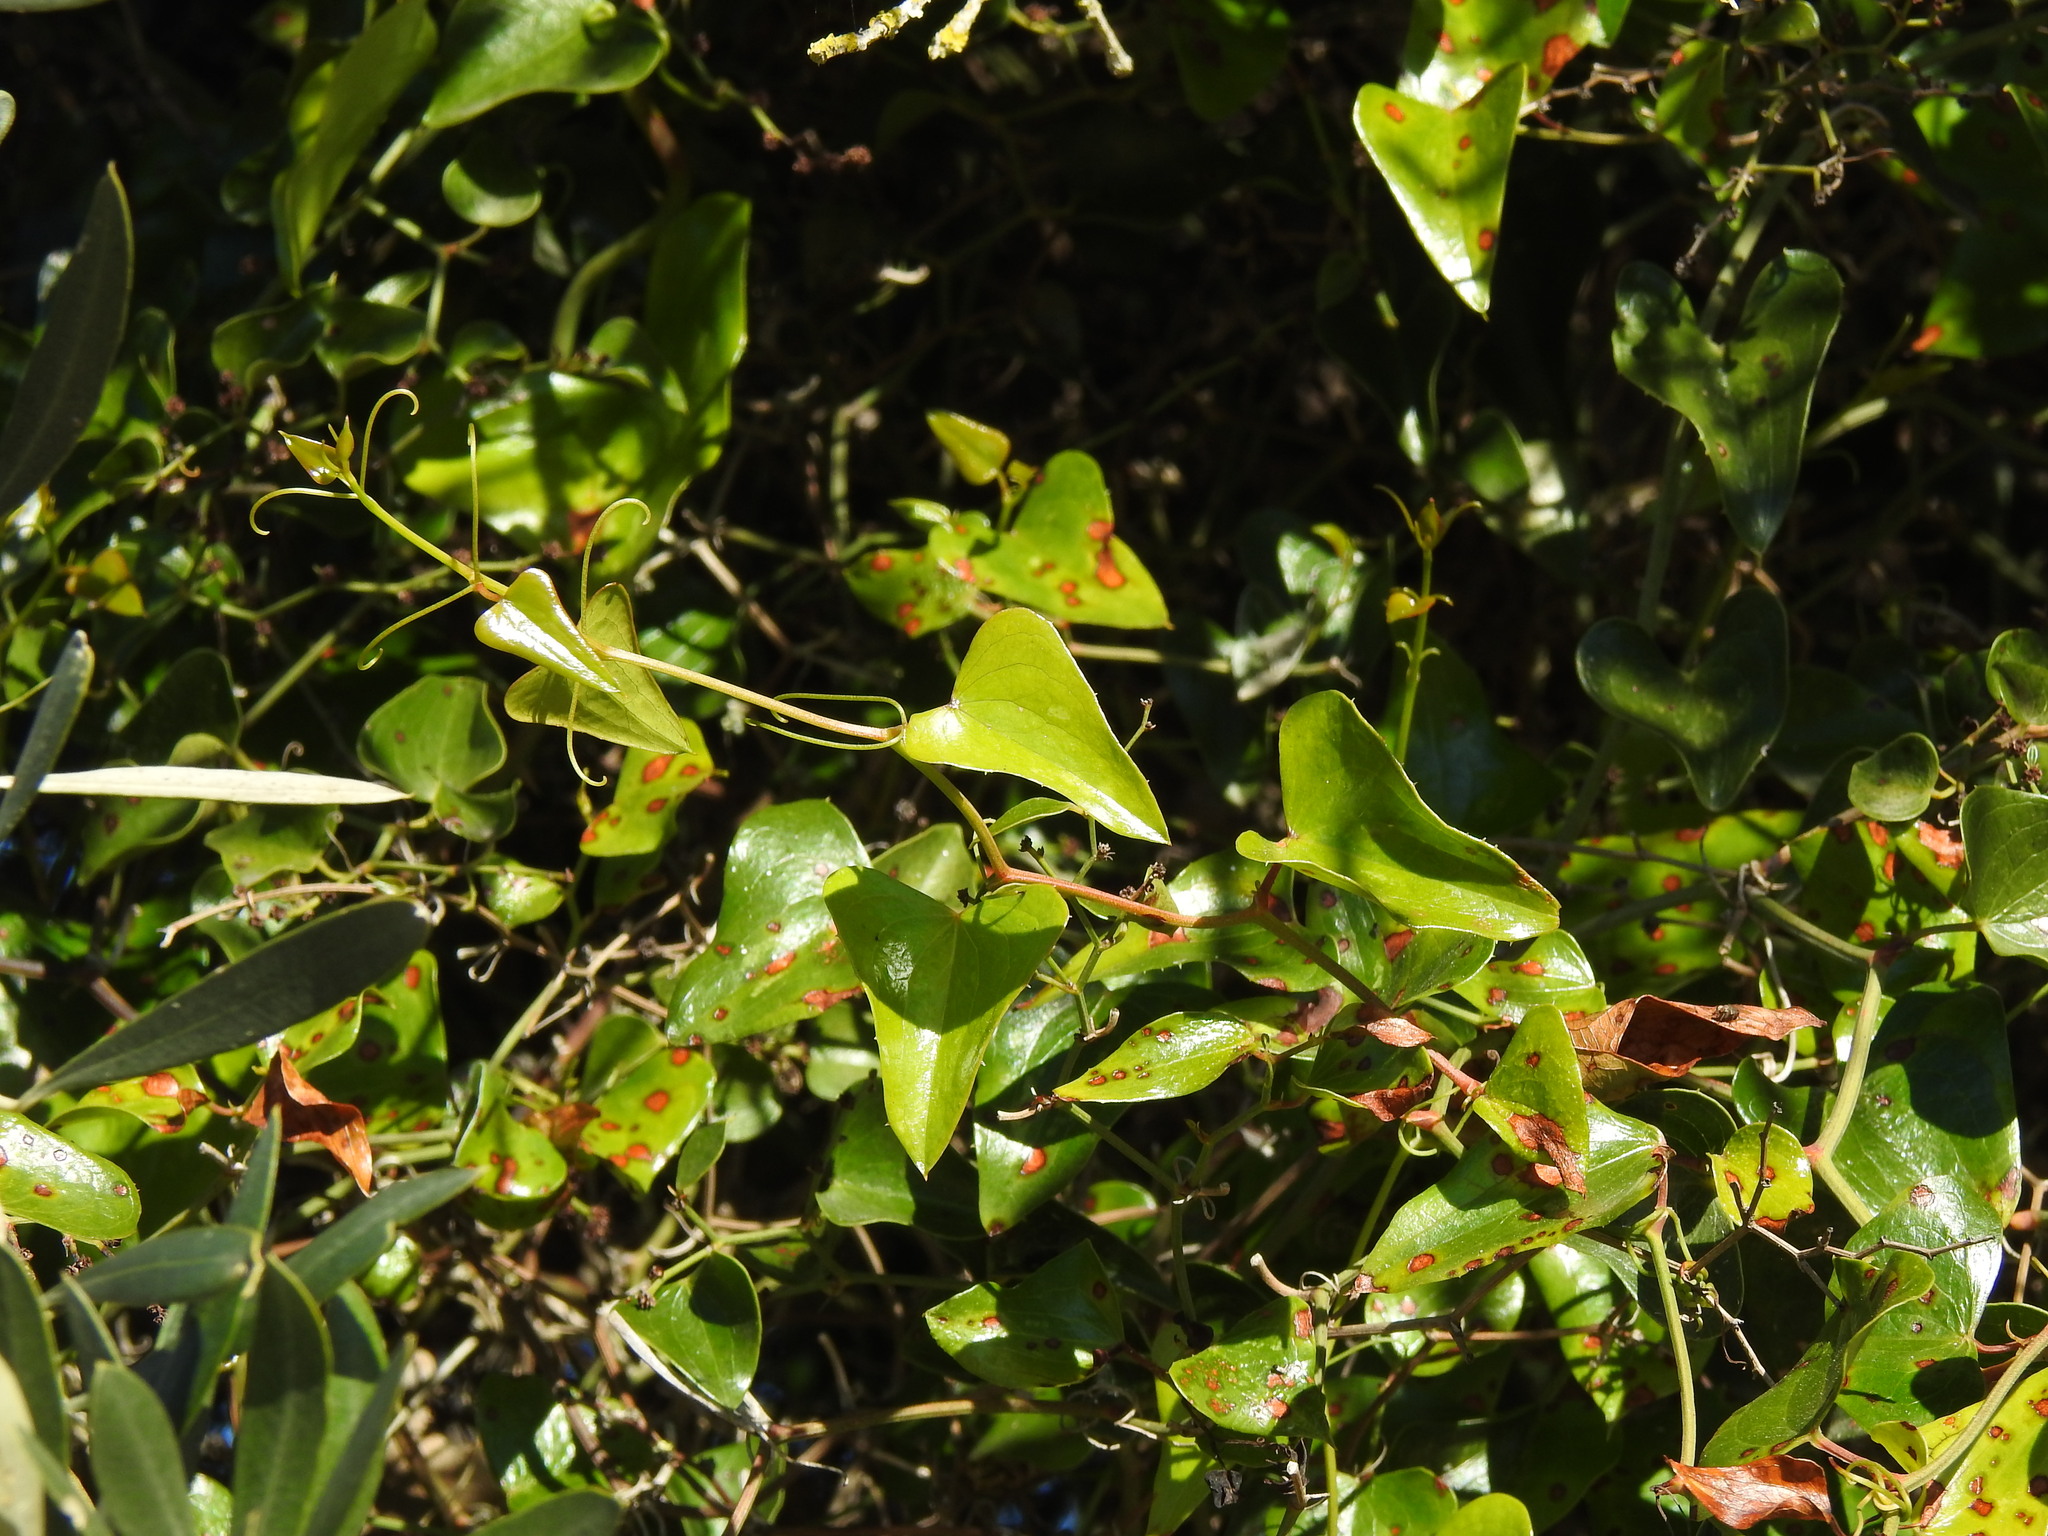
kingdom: Plantae
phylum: Tracheophyta
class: Liliopsida
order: Liliales
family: Smilacaceae
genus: Smilax
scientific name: Smilax aspera
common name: Common smilax
